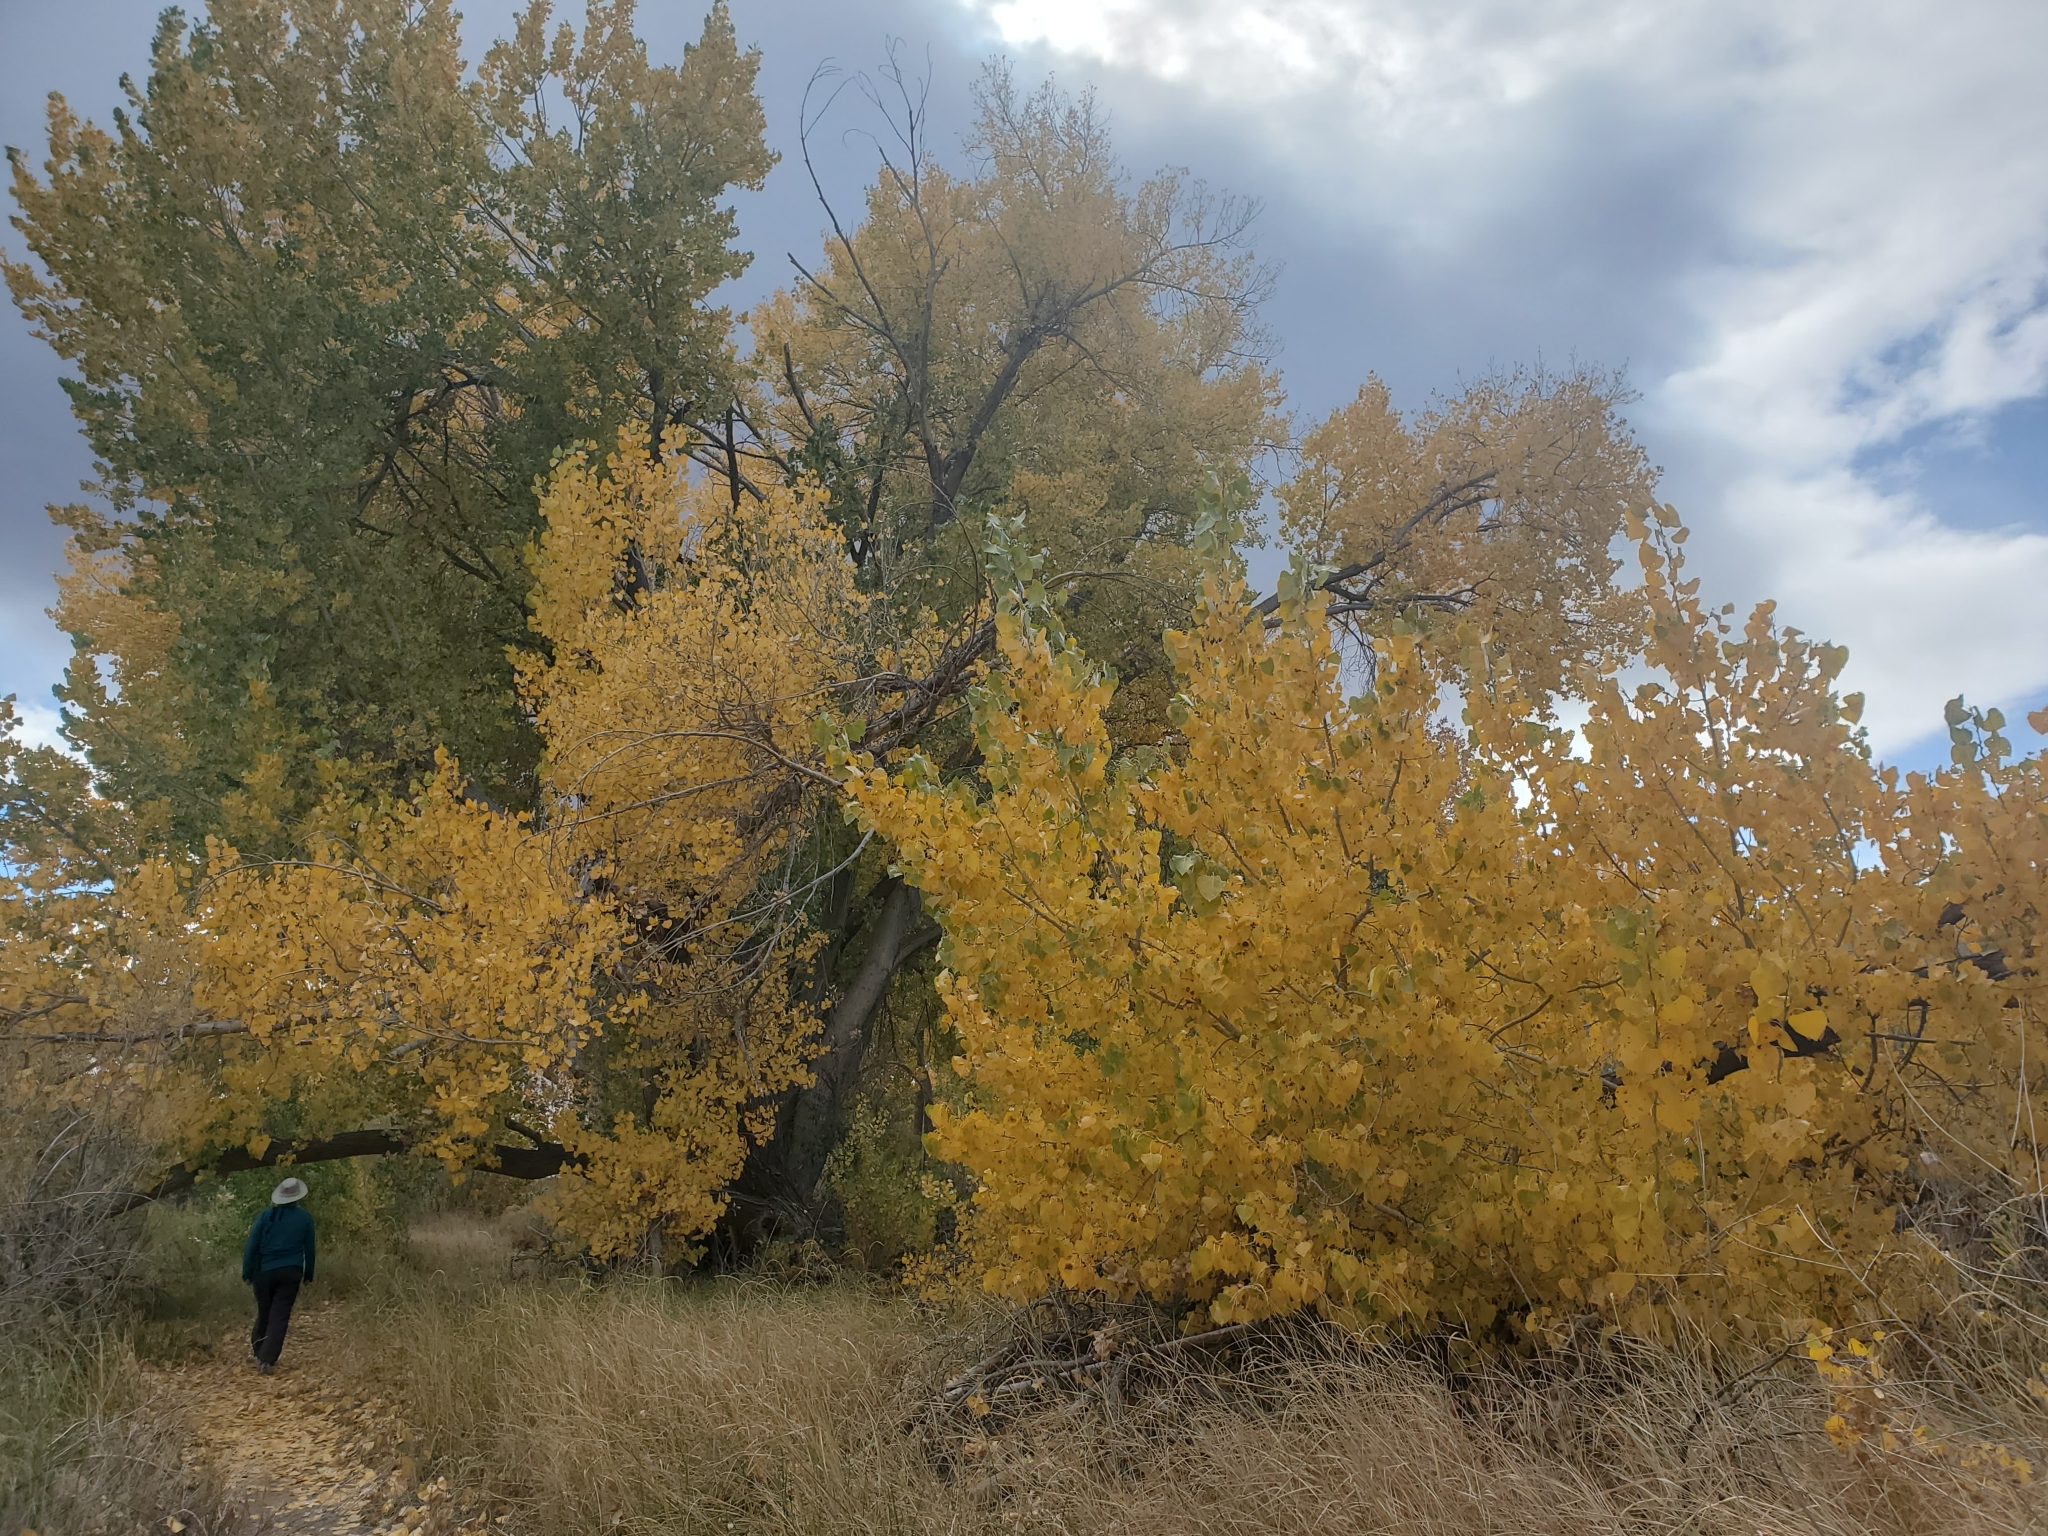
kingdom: Plantae
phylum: Tracheophyta
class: Magnoliopsida
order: Malpighiales
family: Salicaceae
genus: Populus
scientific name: Populus fremontii
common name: Fremont's cottonwood
